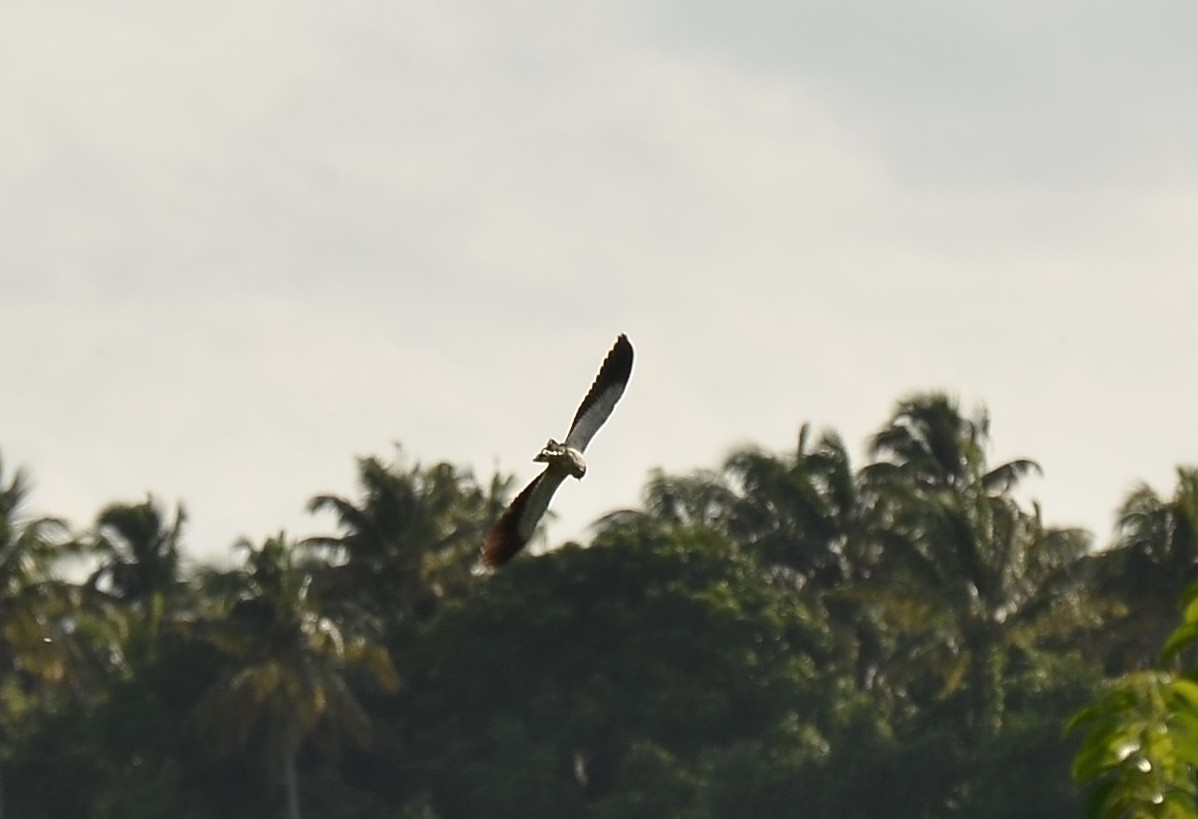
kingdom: Animalia
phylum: Chordata
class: Aves
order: Charadriiformes
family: Charadriidae
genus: Vanellus
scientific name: Vanellus indicus
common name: Red-wattled lapwing
